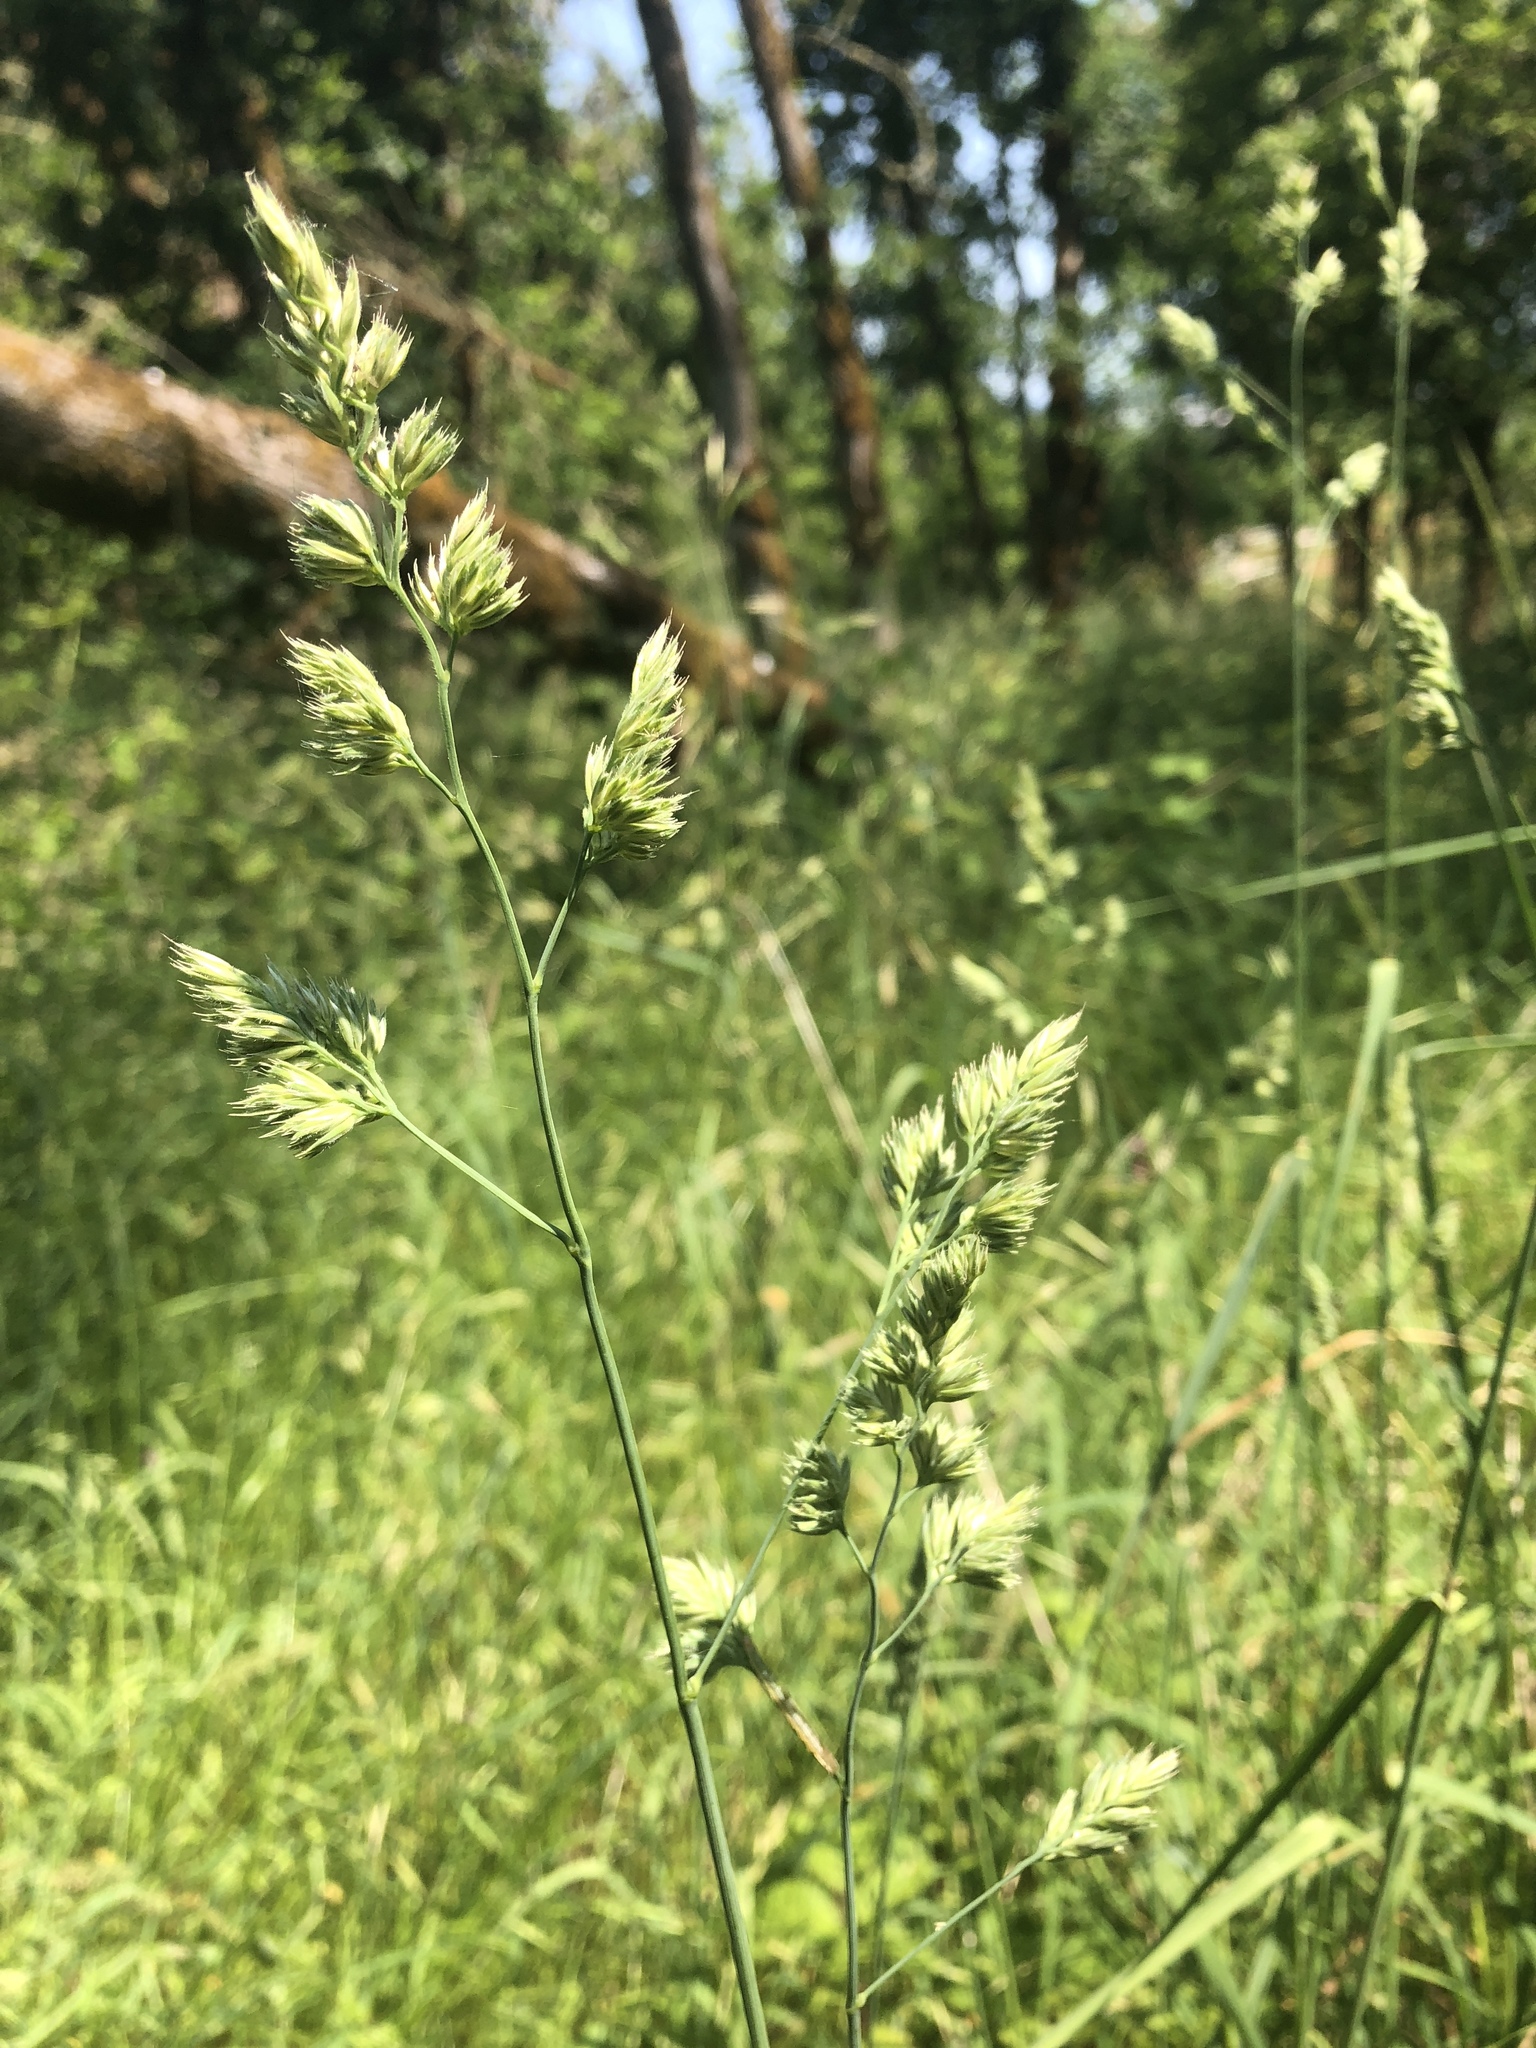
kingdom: Plantae
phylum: Tracheophyta
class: Liliopsida
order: Poales
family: Poaceae
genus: Dactylis
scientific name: Dactylis glomerata
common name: Orchardgrass
